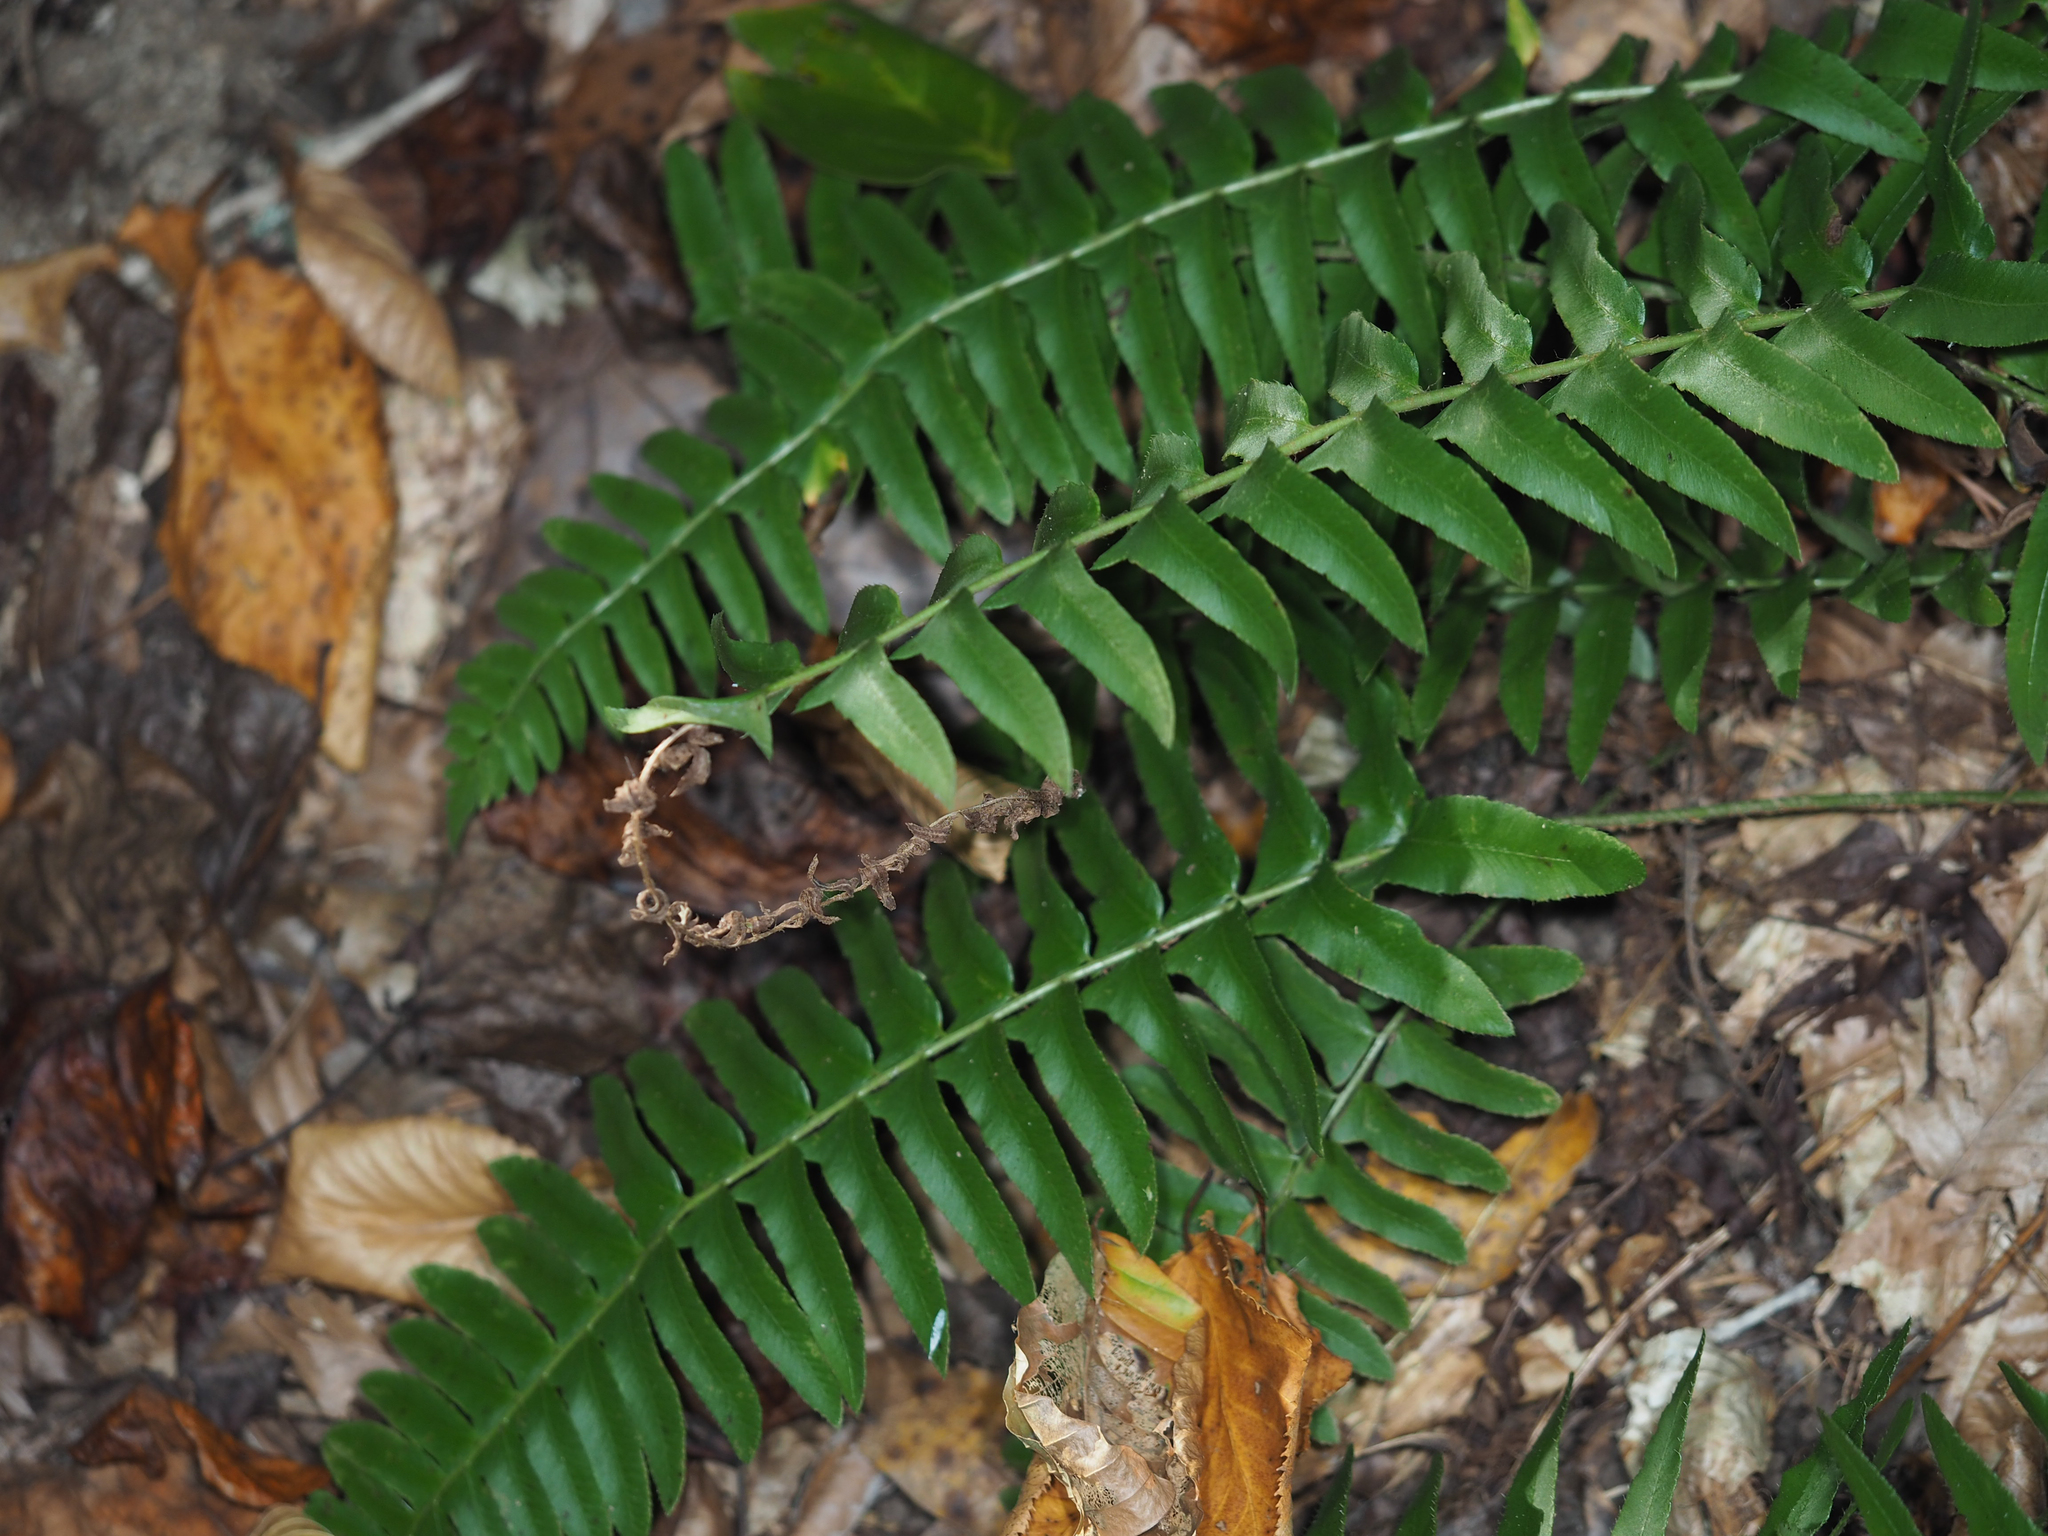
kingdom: Plantae
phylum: Tracheophyta
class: Polypodiopsida
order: Polypodiales
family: Dryopteridaceae
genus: Polystichum
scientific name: Polystichum acrostichoides
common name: Christmas fern
